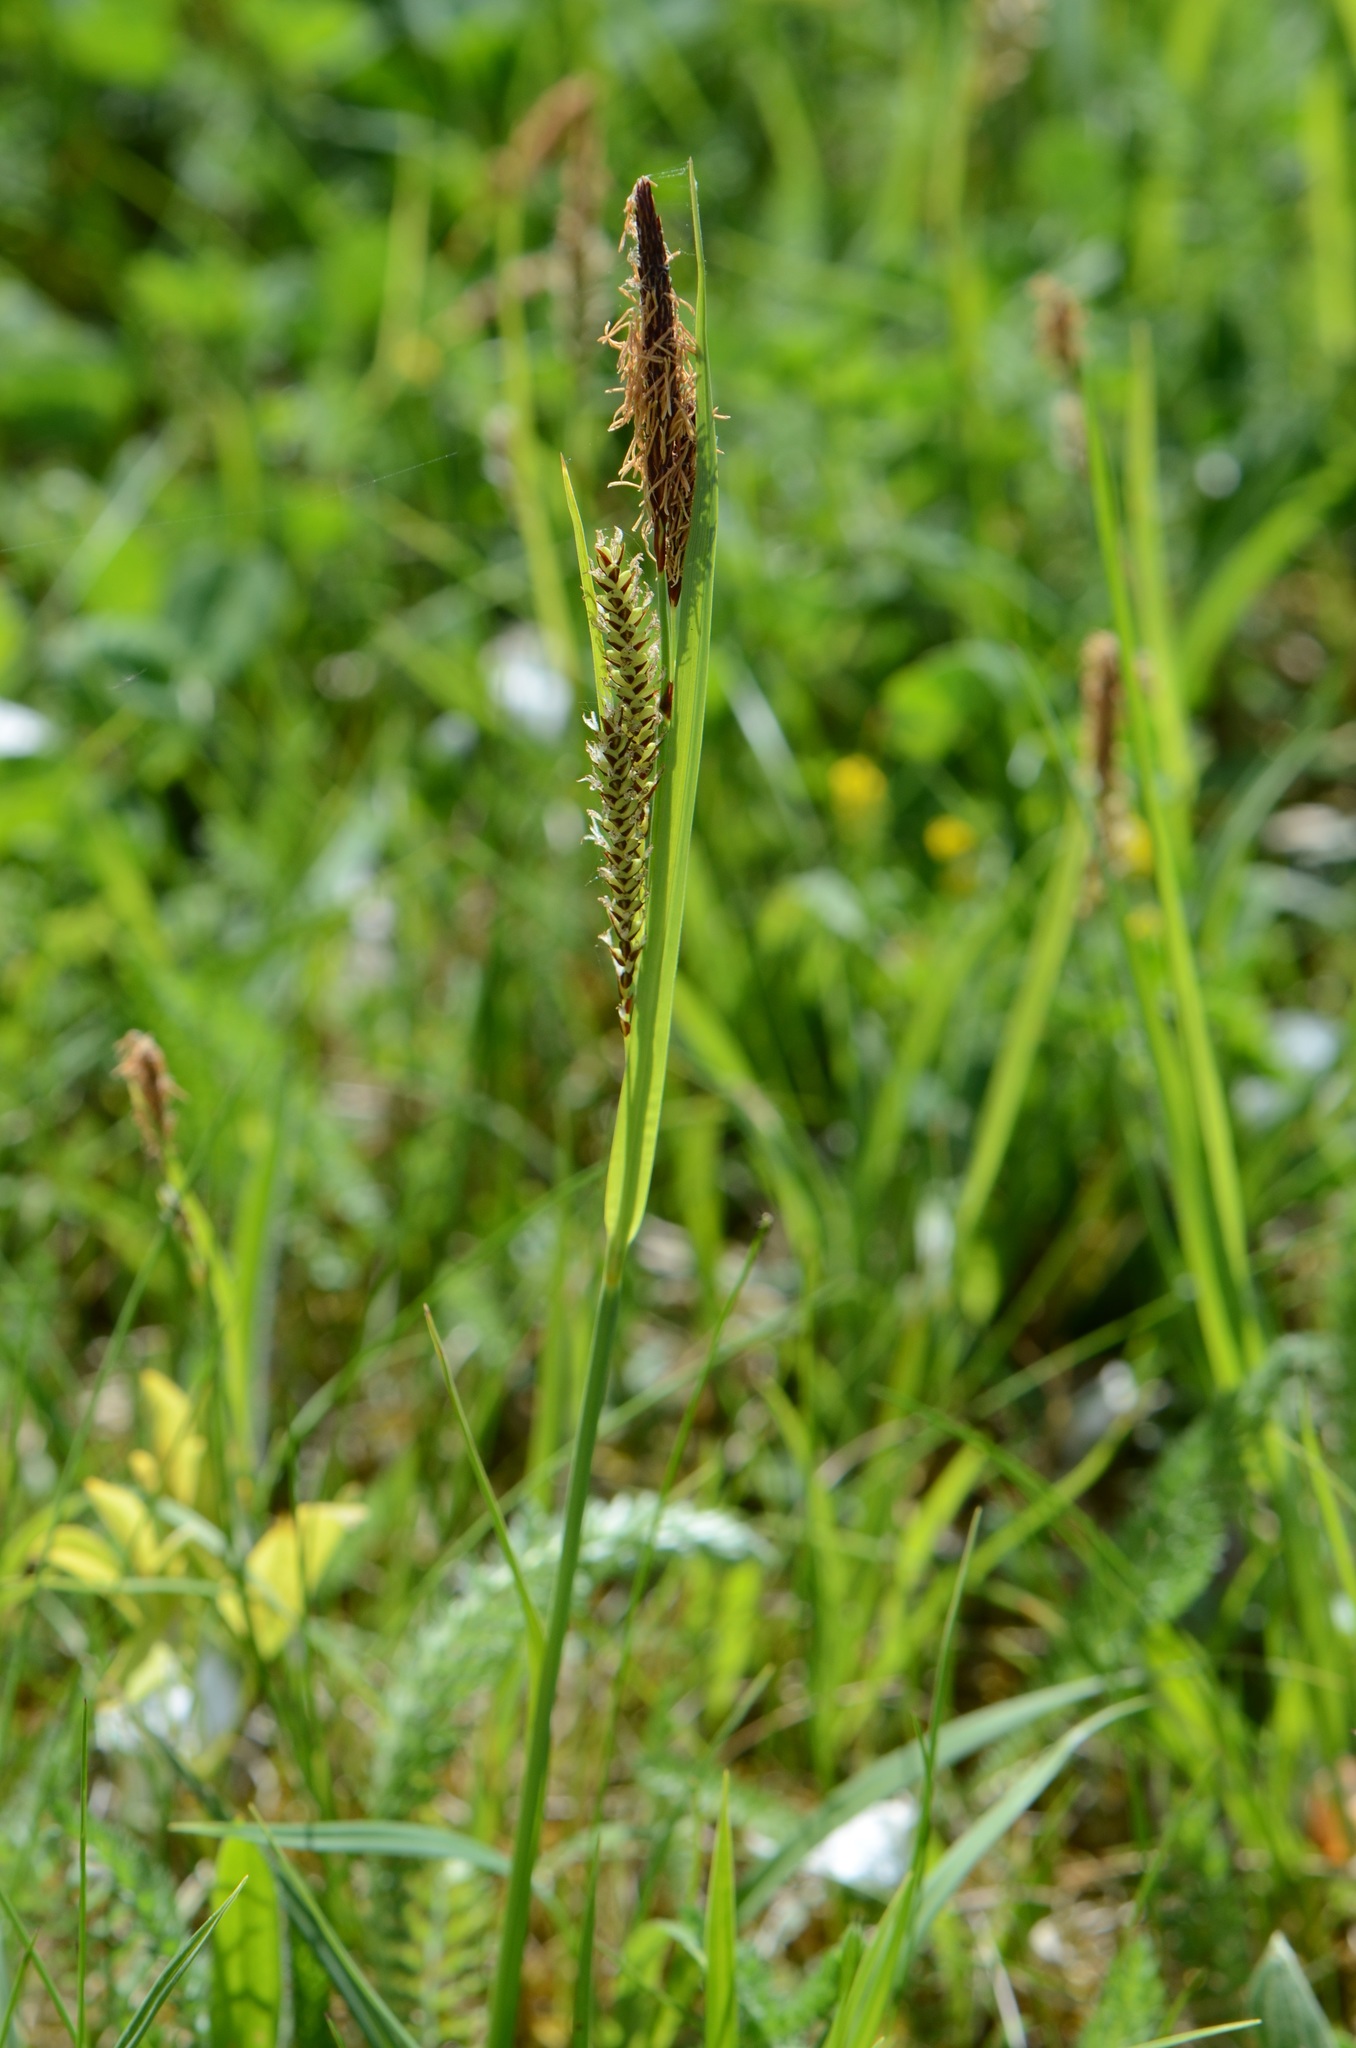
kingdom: Plantae
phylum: Tracheophyta
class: Liliopsida
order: Poales
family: Cyperaceae
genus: Carex
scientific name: Carex flacca
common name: Glaucous sedge
